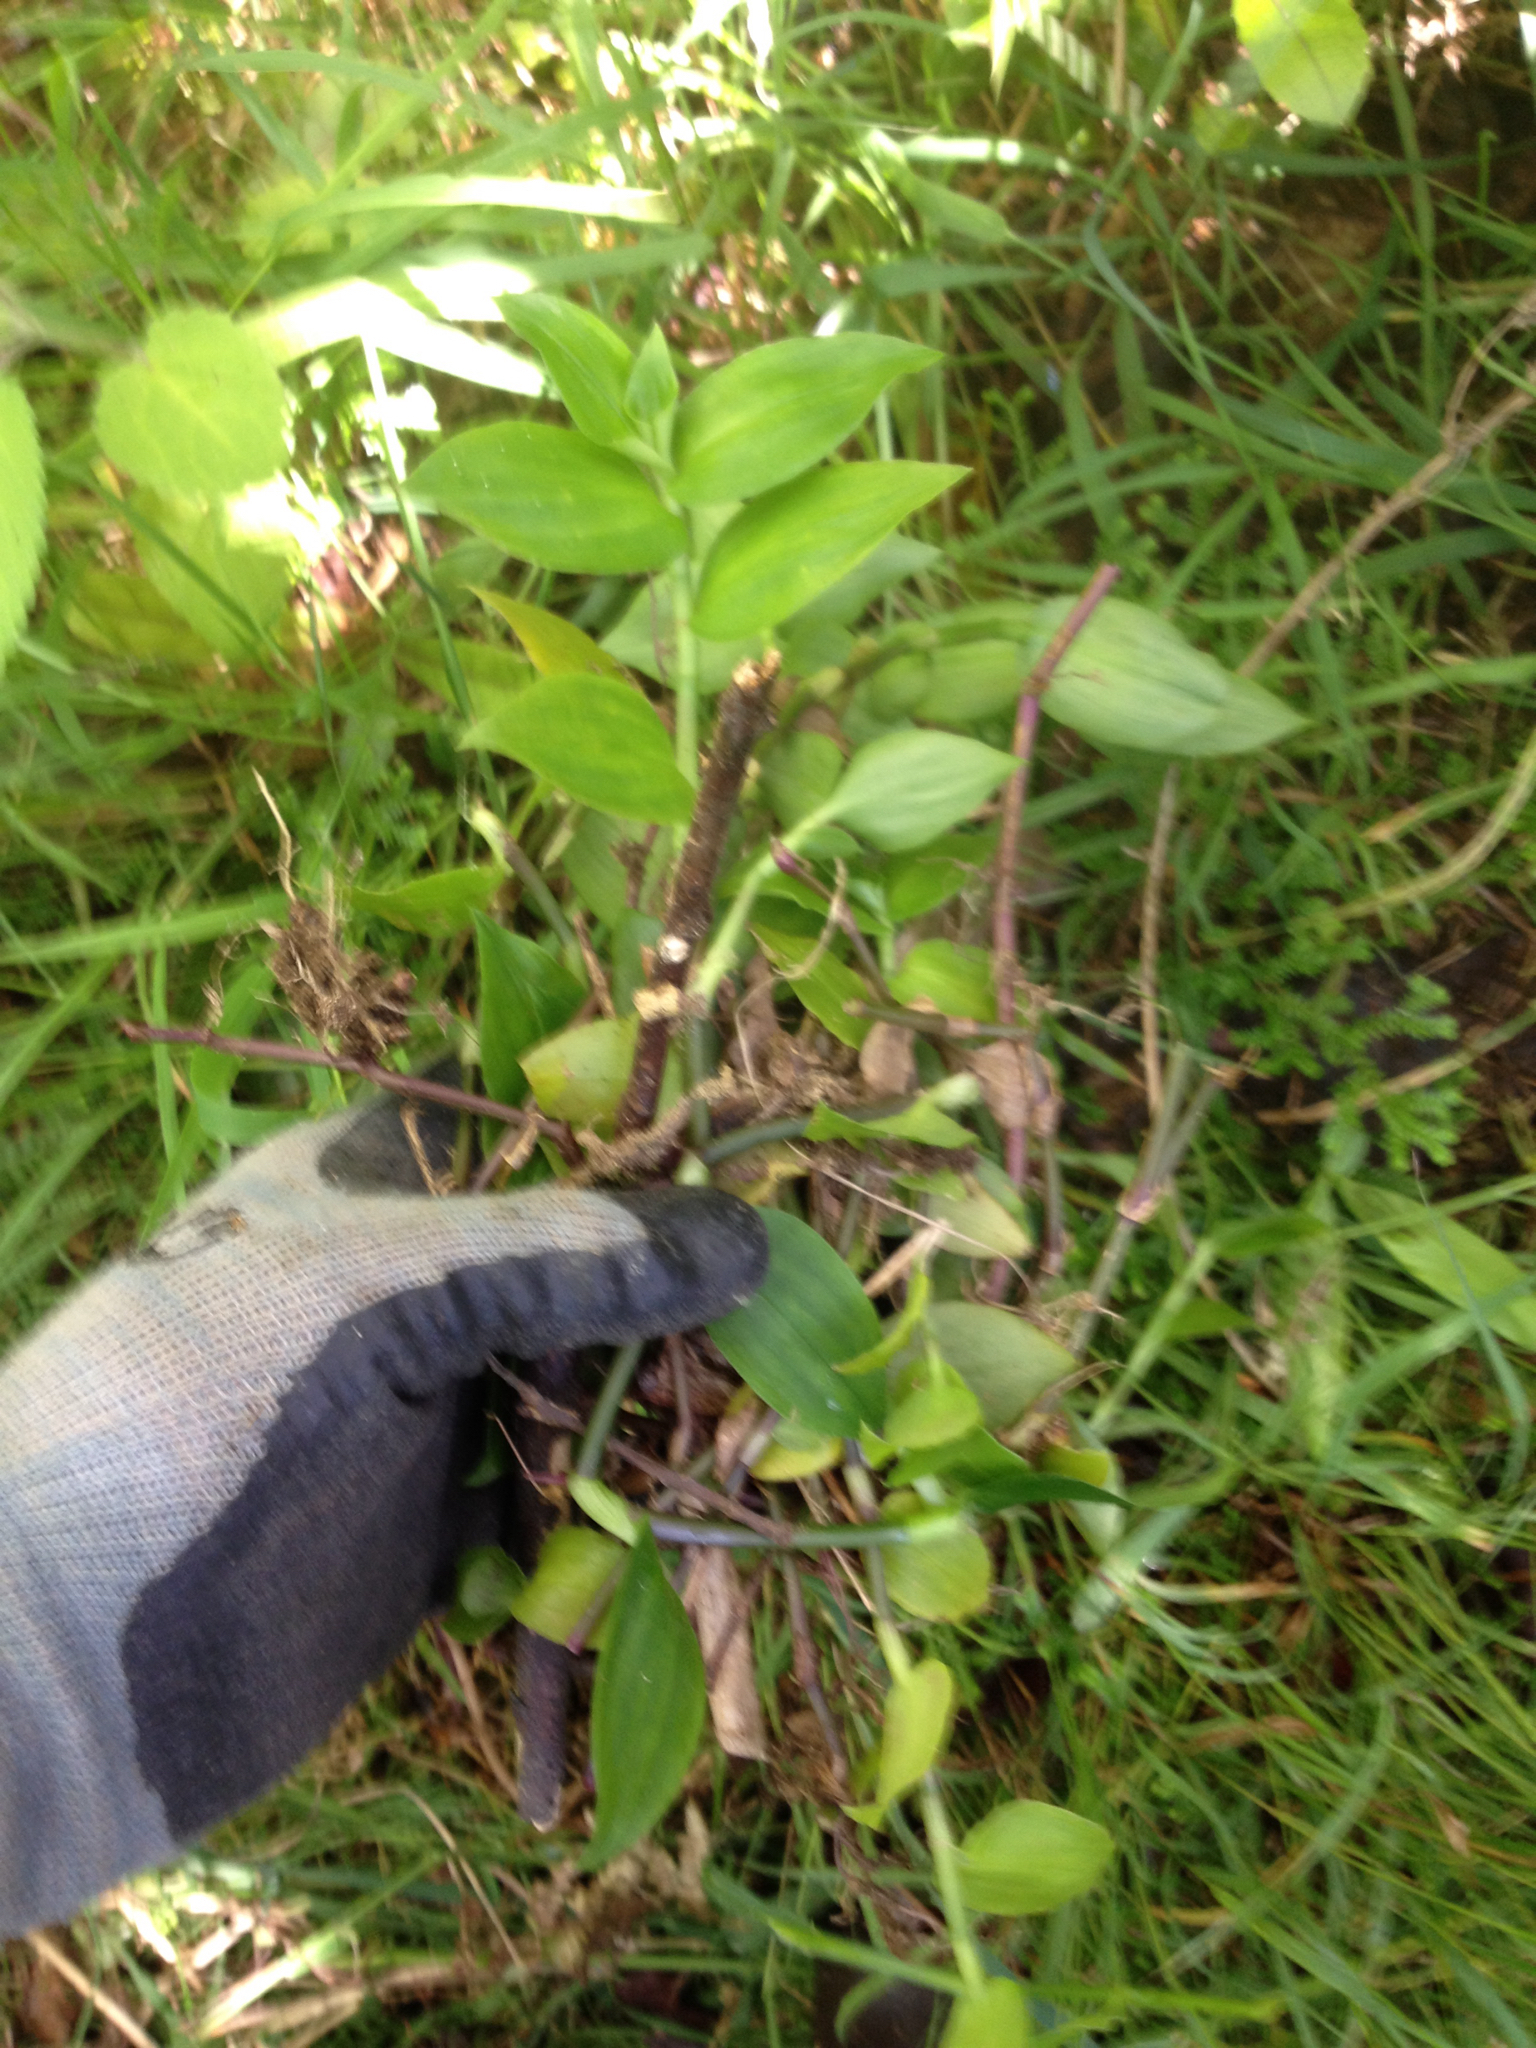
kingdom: Plantae
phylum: Tracheophyta
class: Liliopsida
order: Commelinales
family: Commelinaceae
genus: Tradescantia
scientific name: Tradescantia fluminensis
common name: Wandering-jew
